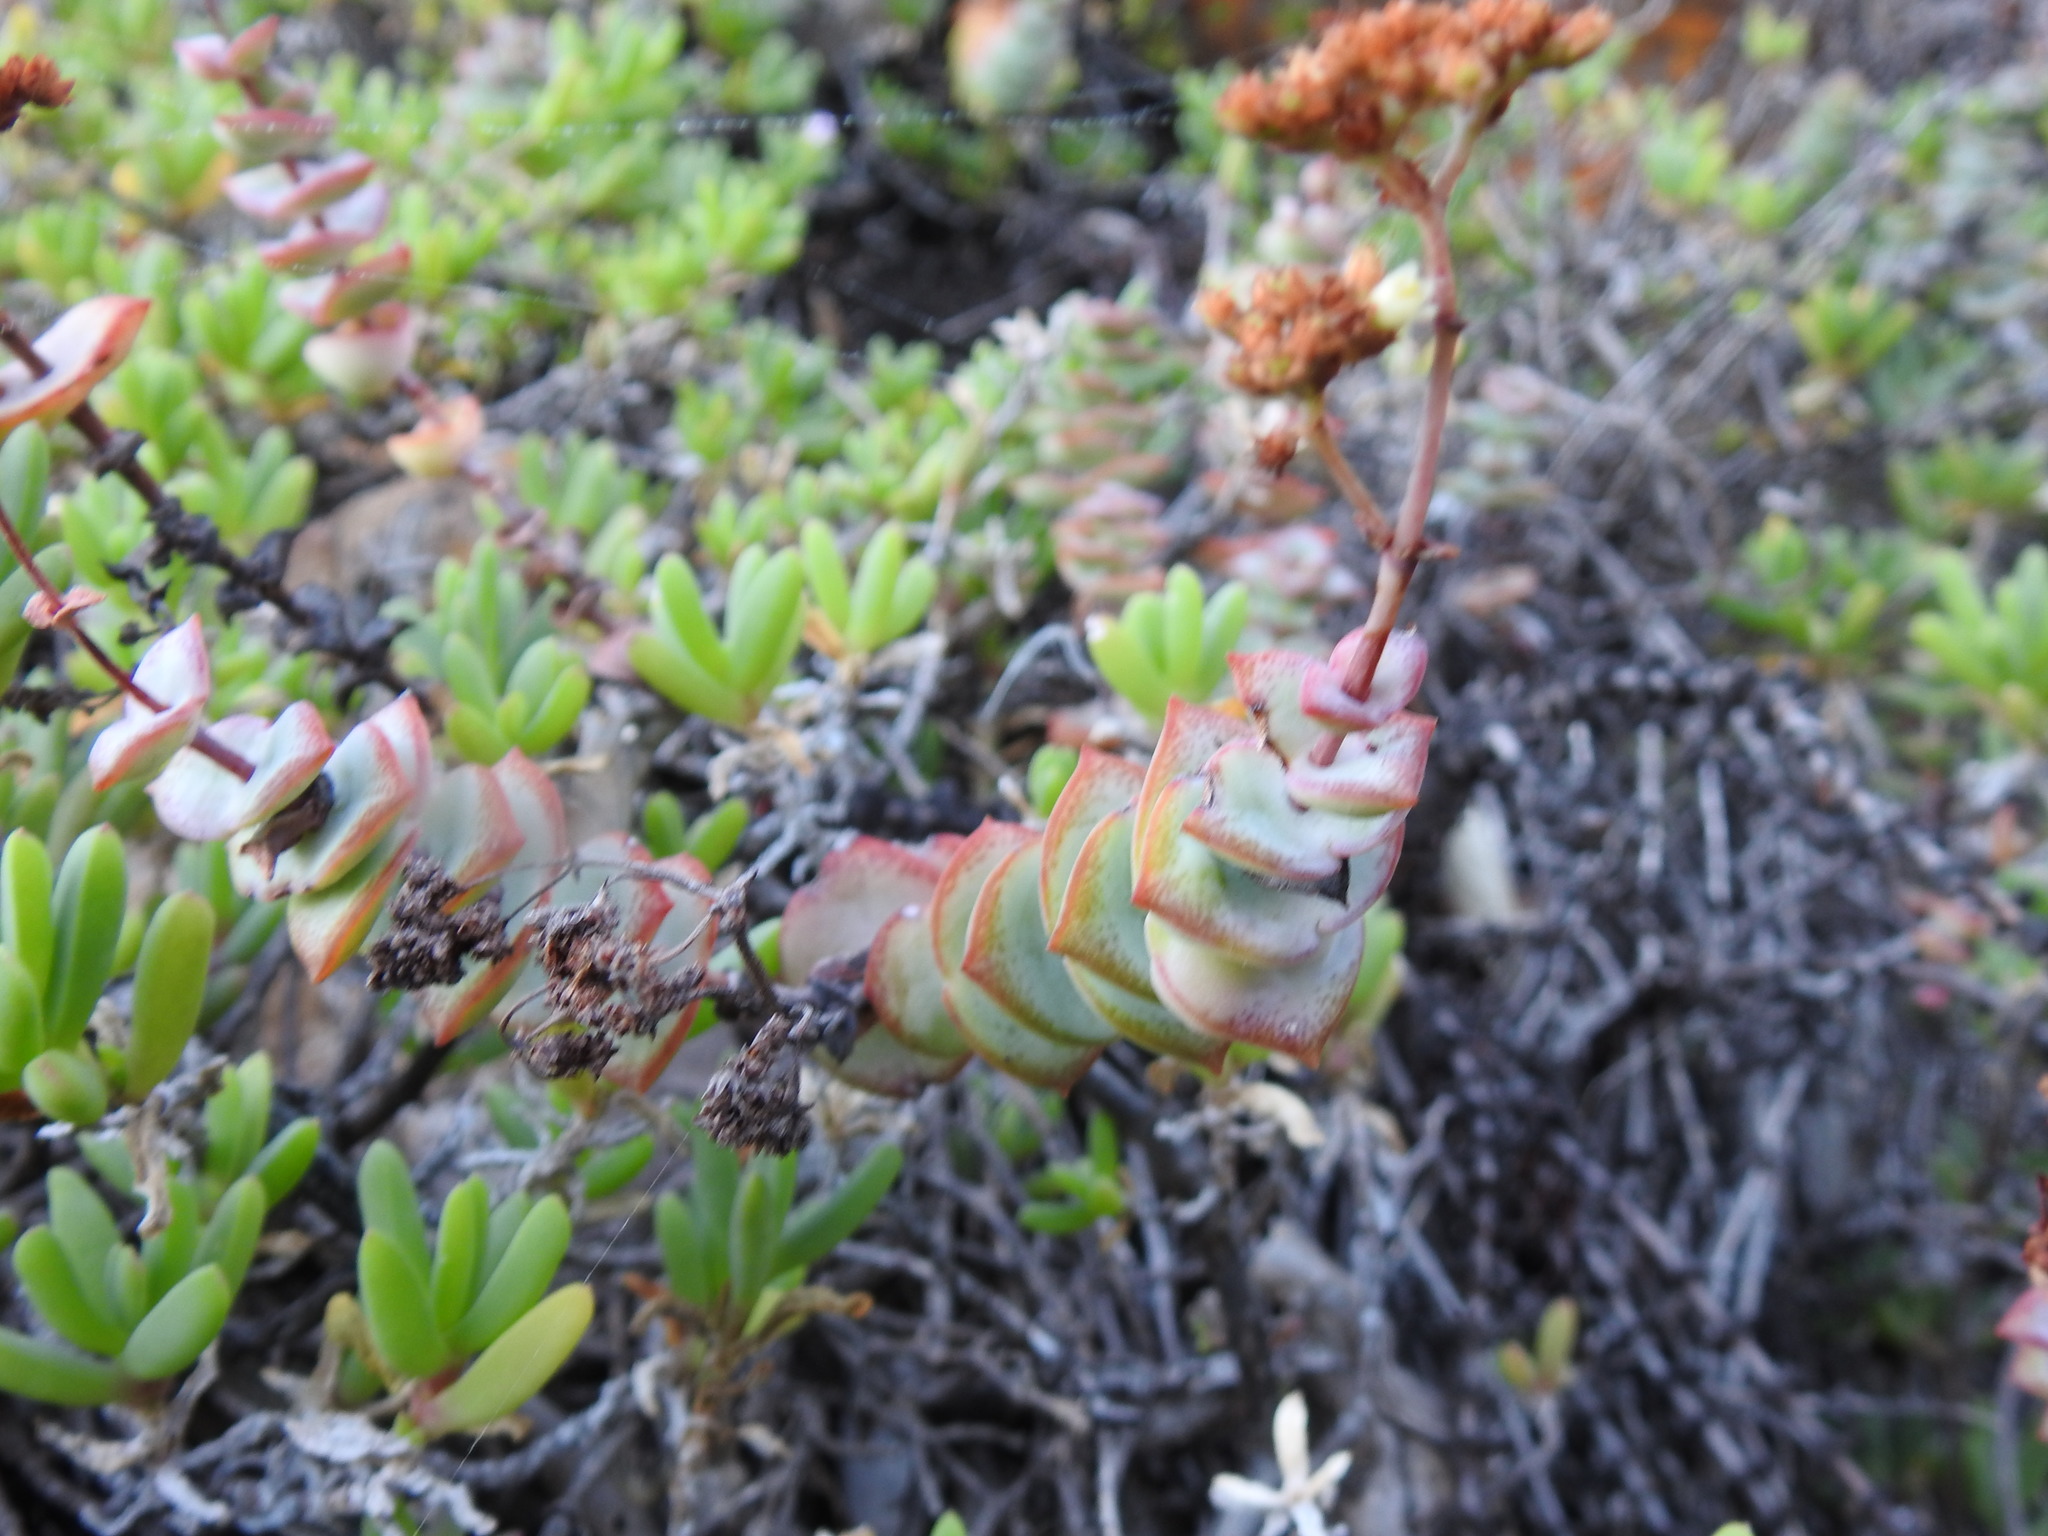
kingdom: Plantae
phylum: Tracheophyta
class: Magnoliopsida
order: Saxifragales
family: Crassulaceae
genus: Crassula
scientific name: Crassula perforata
